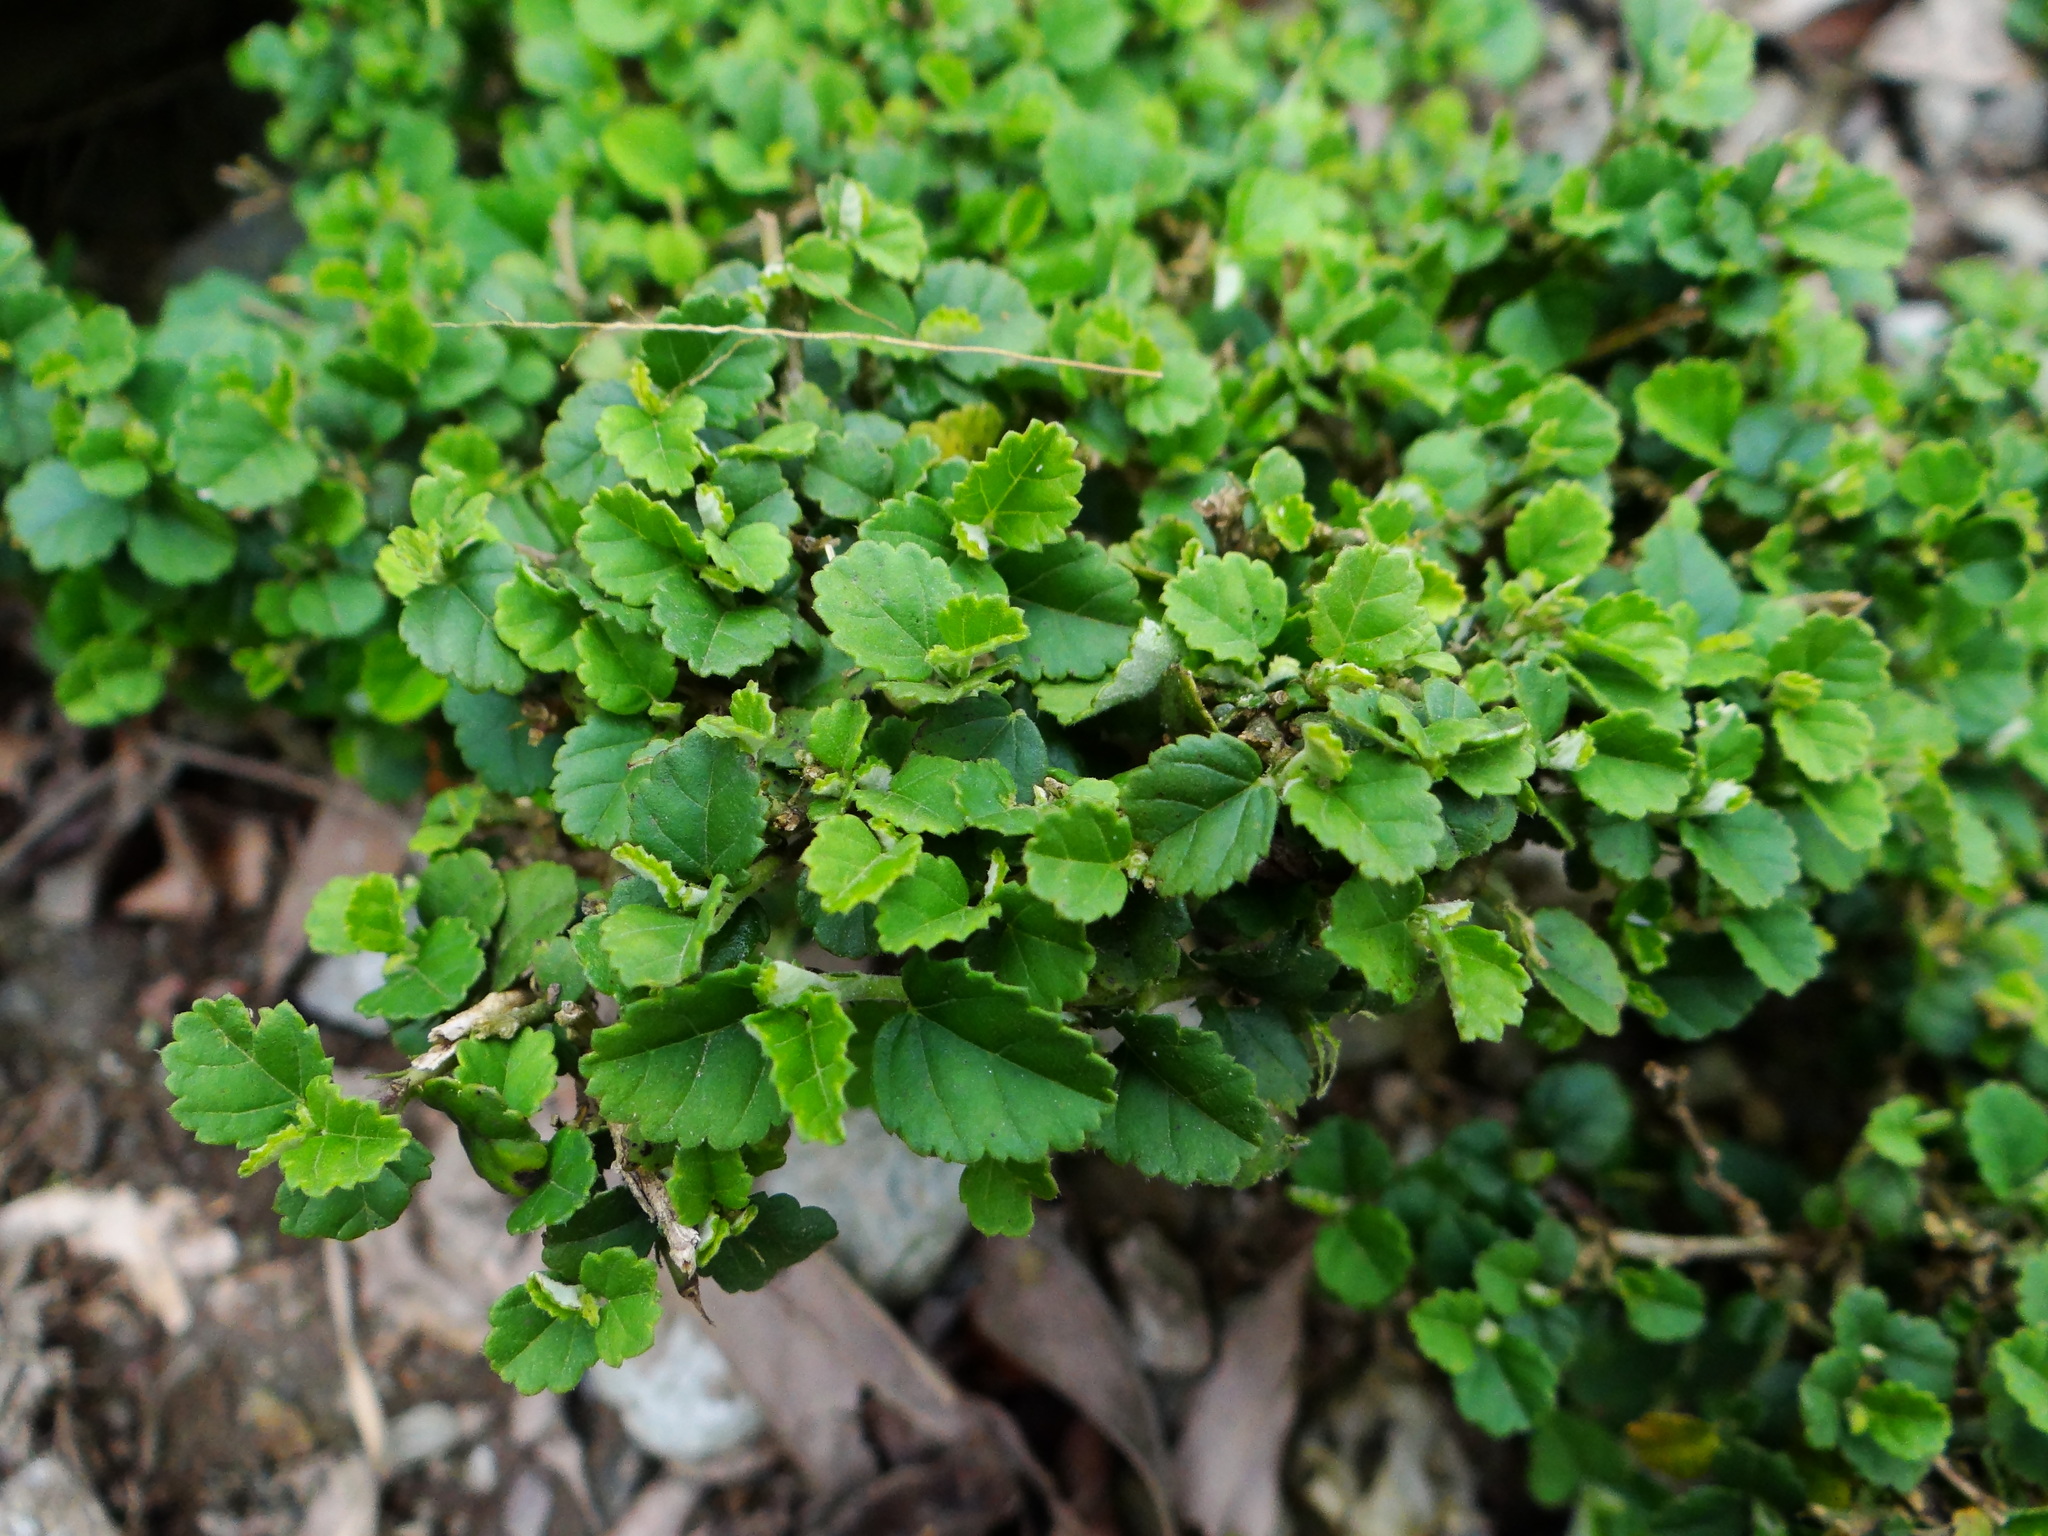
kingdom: Plantae
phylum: Tracheophyta
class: Magnoliopsida
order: Malvales
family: Malvaceae
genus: Grewia
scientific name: Grewia piscatorum
